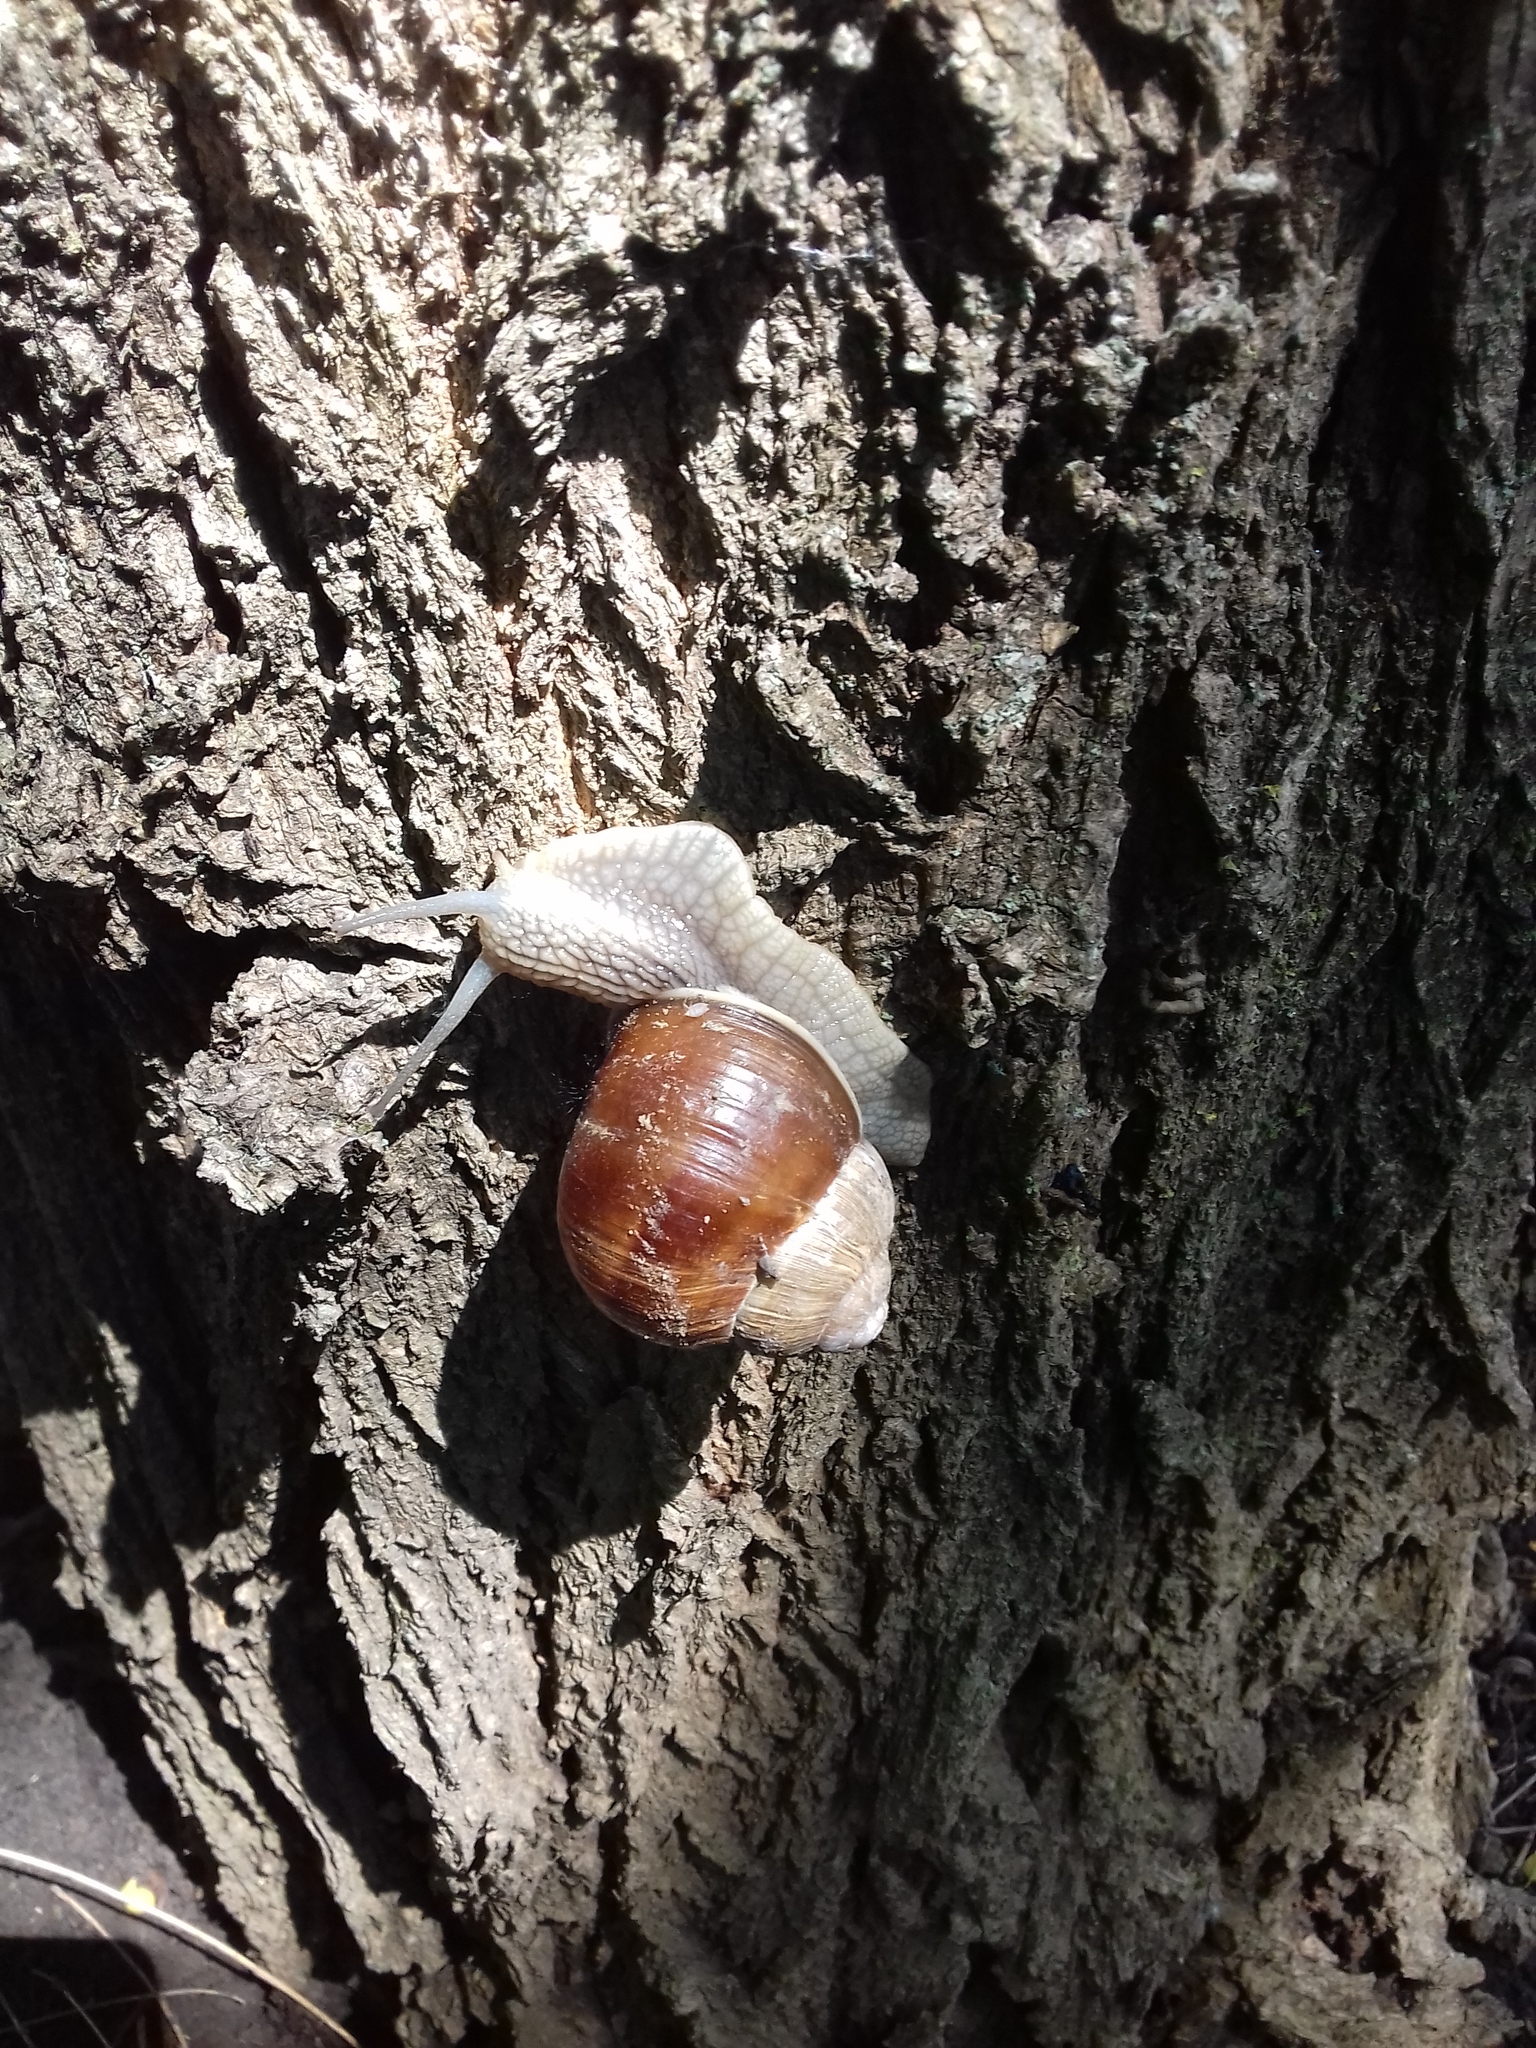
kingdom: Animalia
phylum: Mollusca
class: Gastropoda
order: Stylommatophora
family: Helicidae
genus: Helix
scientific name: Helix pomatia
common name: Roman snail
